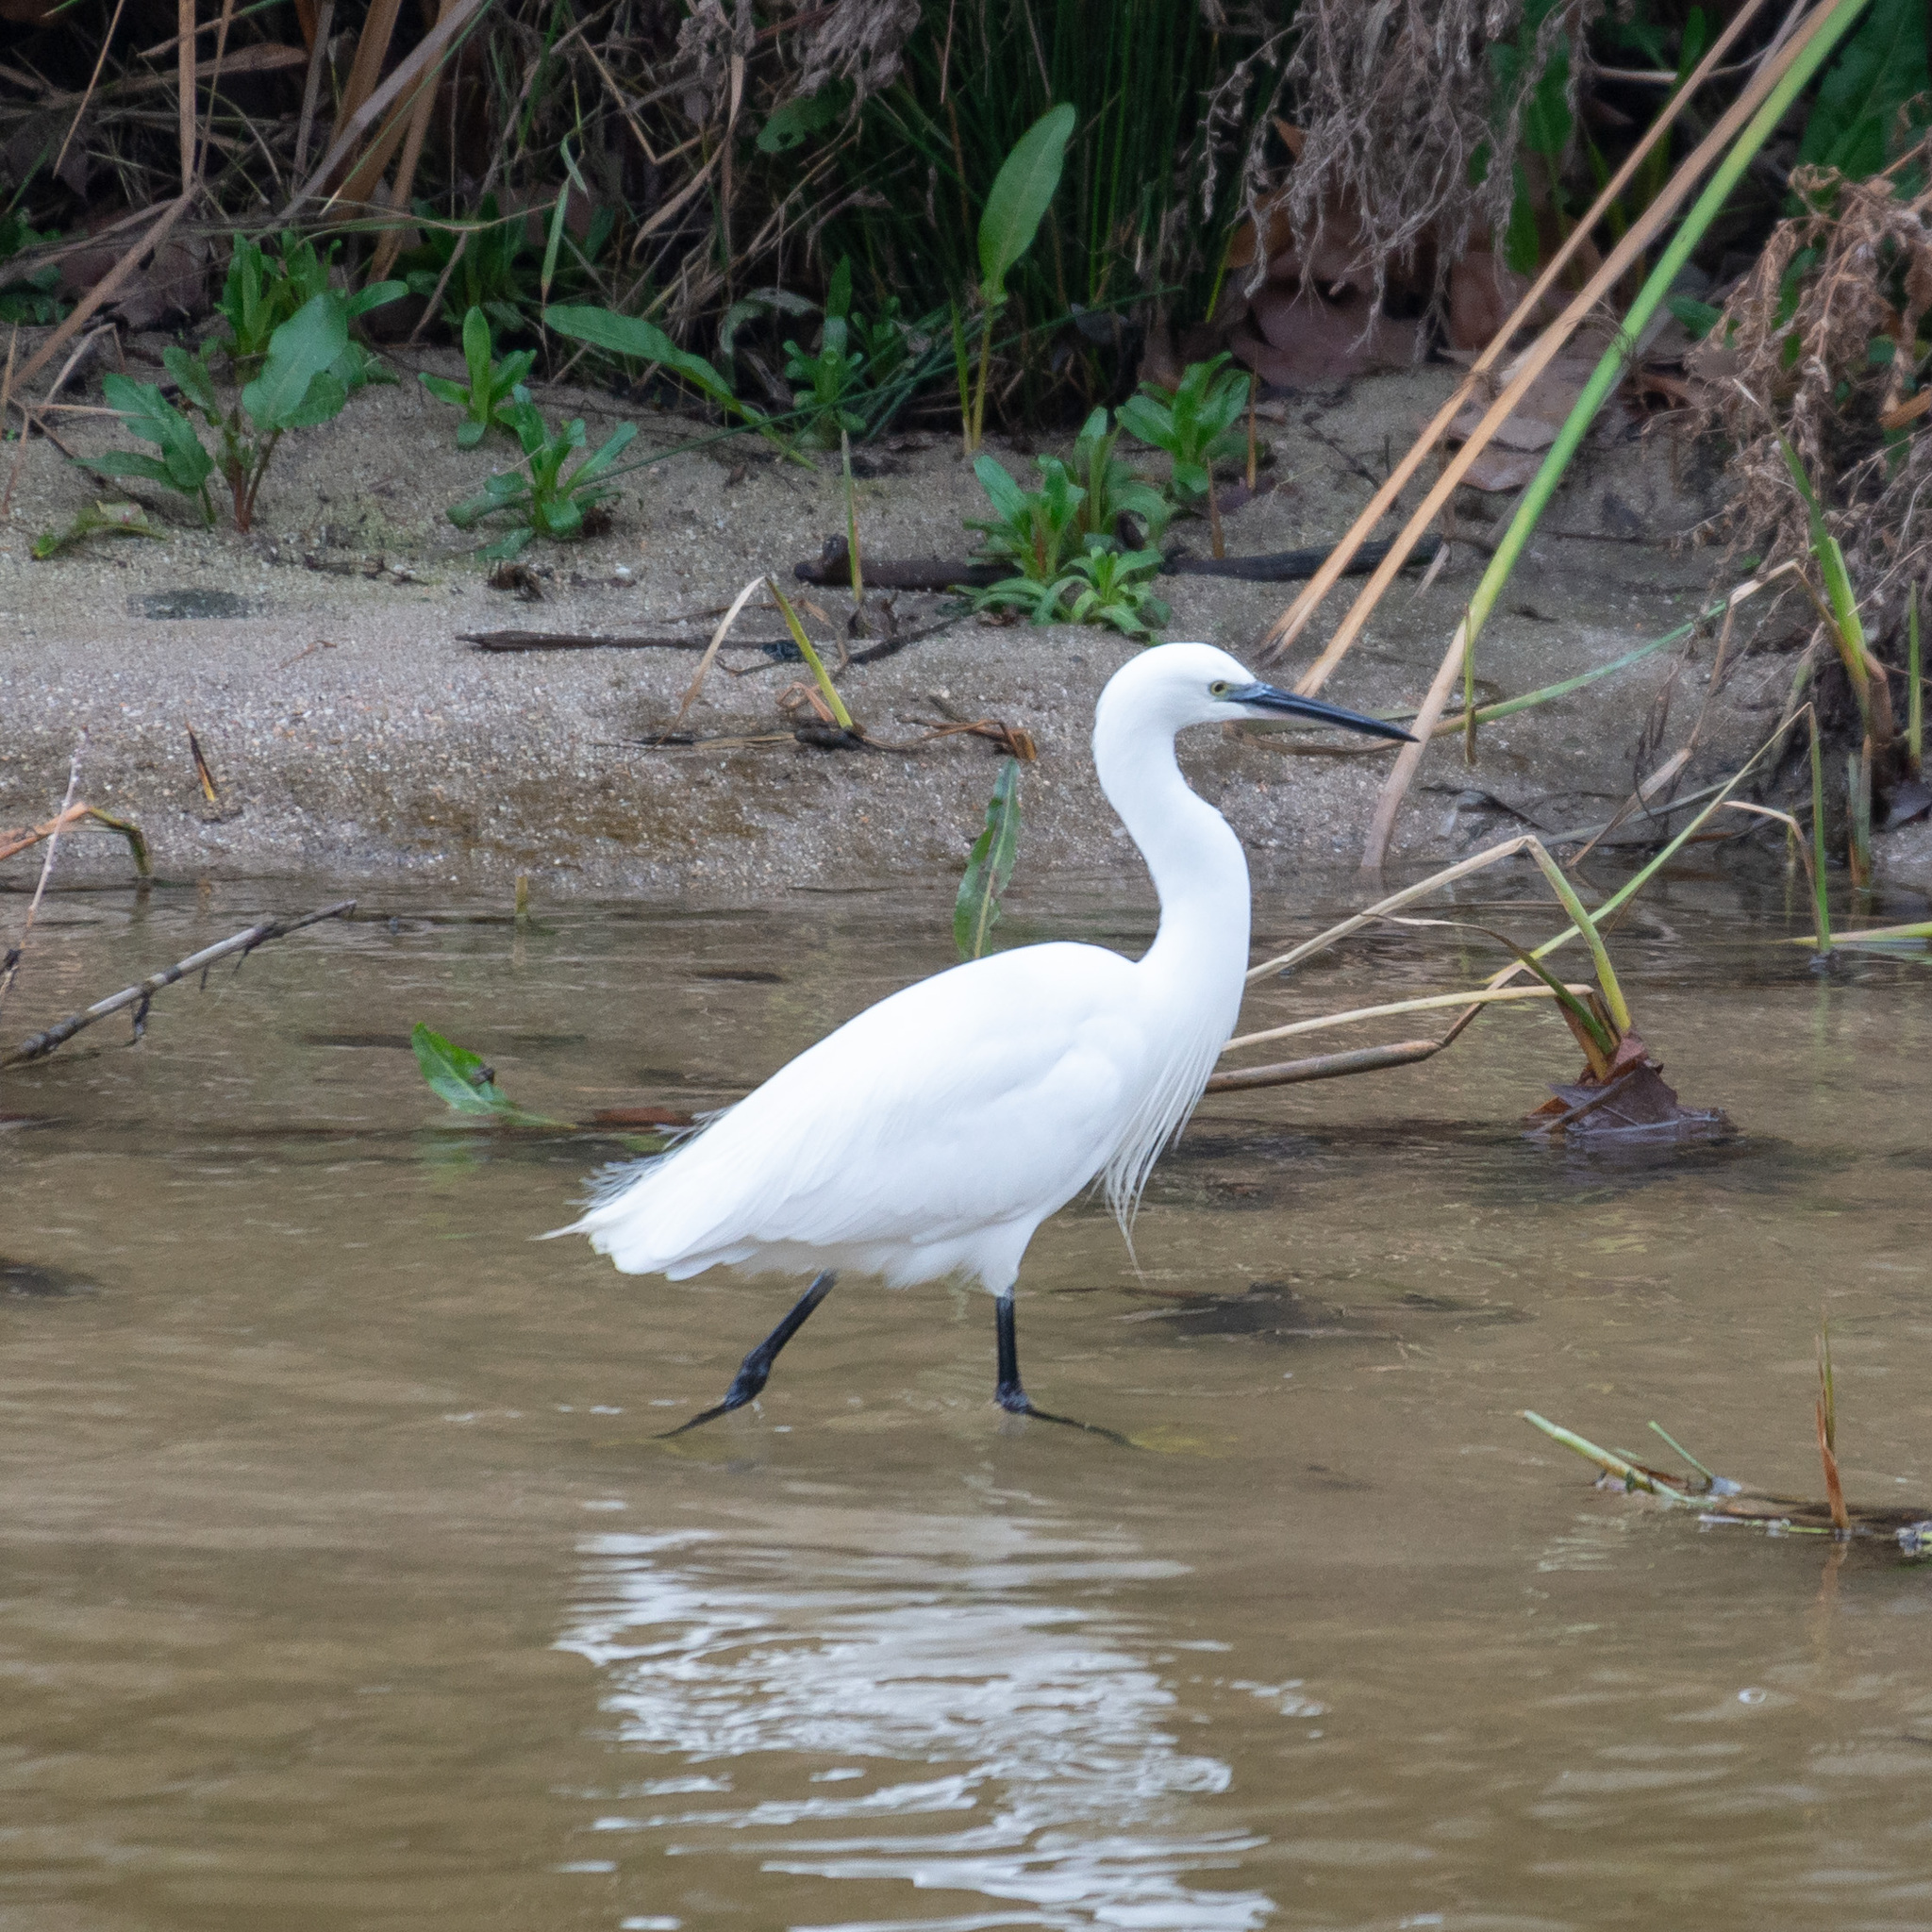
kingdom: Animalia
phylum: Chordata
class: Aves
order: Pelecaniformes
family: Ardeidae
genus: Egretta
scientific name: Egretta garzetta
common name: Little egret
